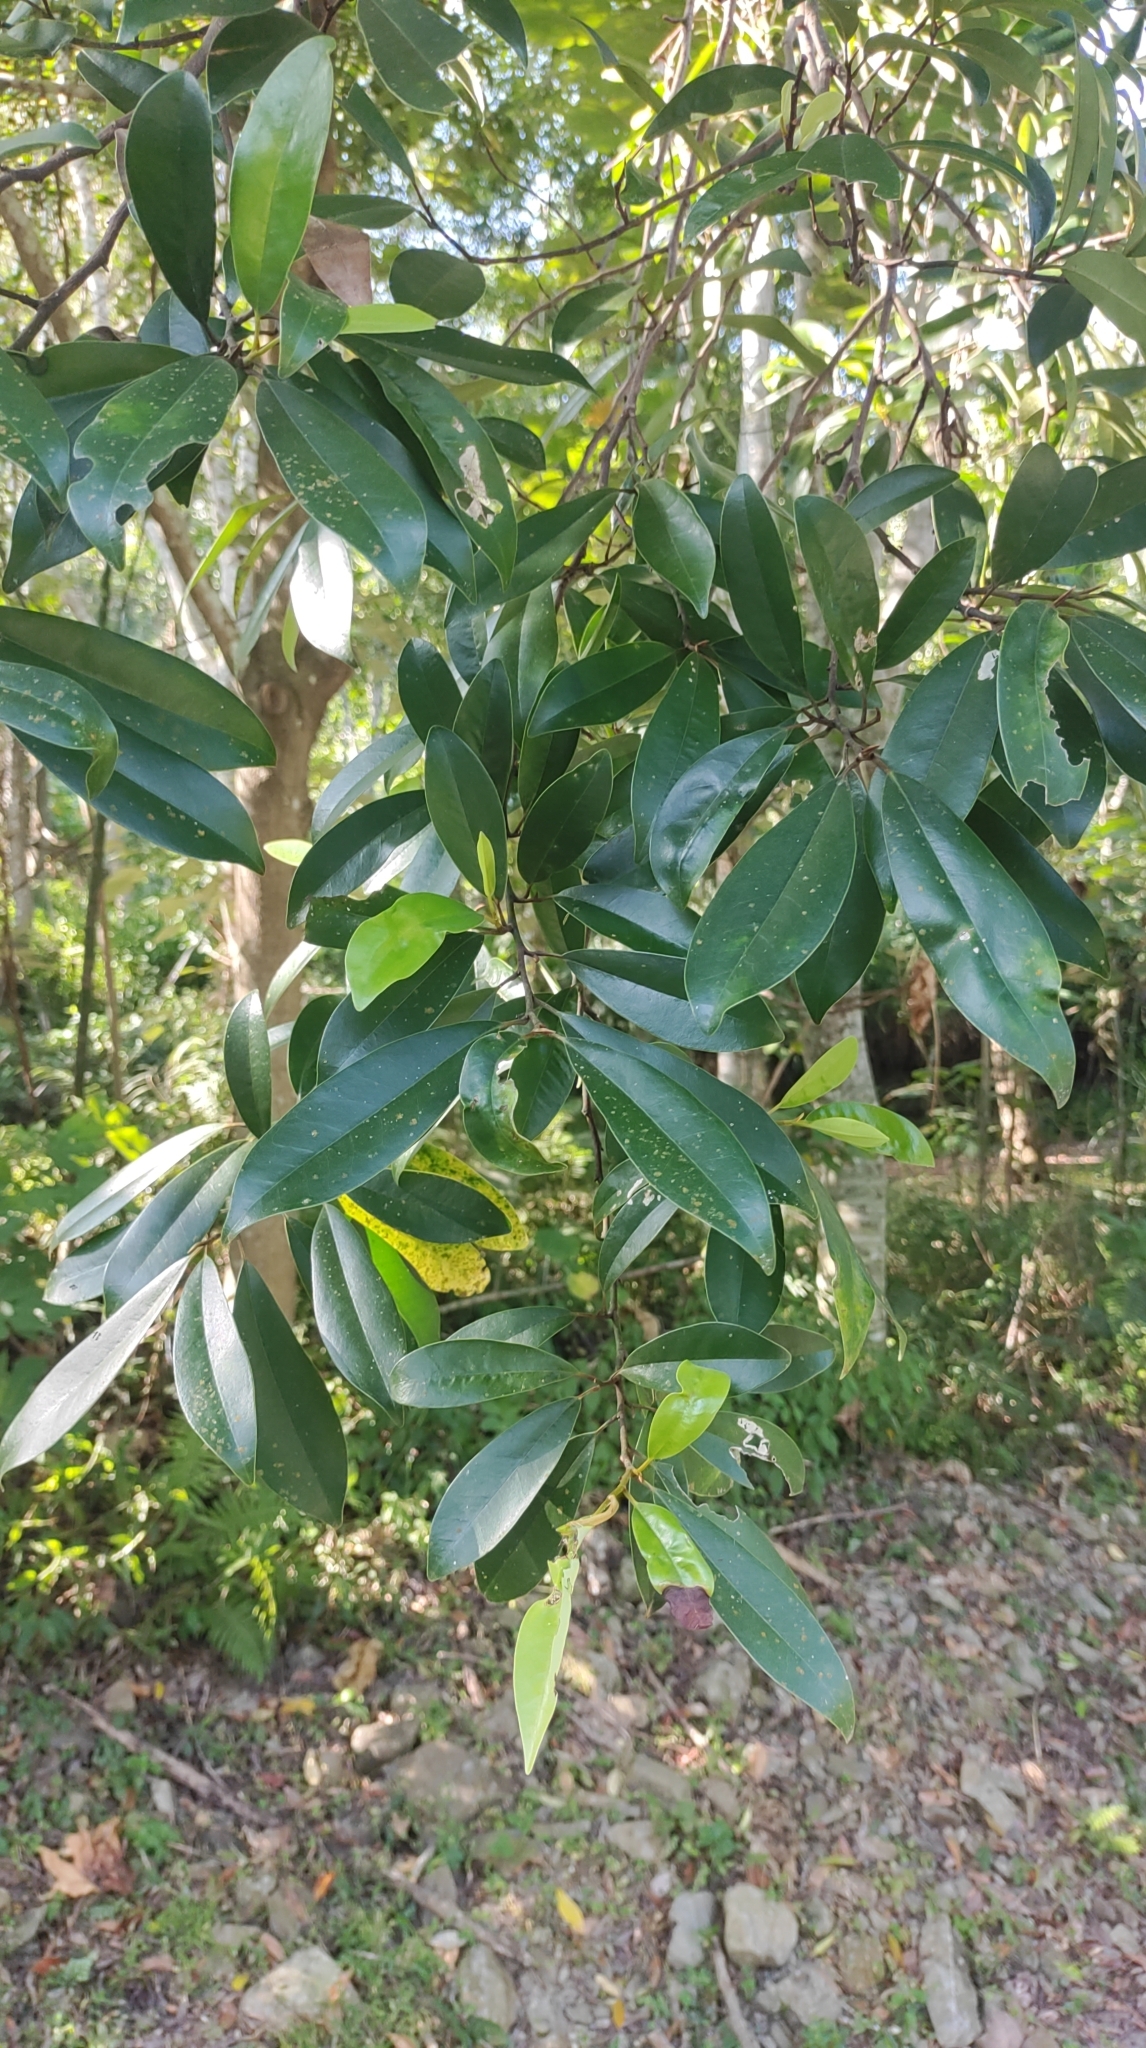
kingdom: Plantae
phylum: Tracheophyta
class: Magnoliopsida
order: Magnoliales
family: Magnoliaceae
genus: Magnolia
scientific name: Magnolia compressa
